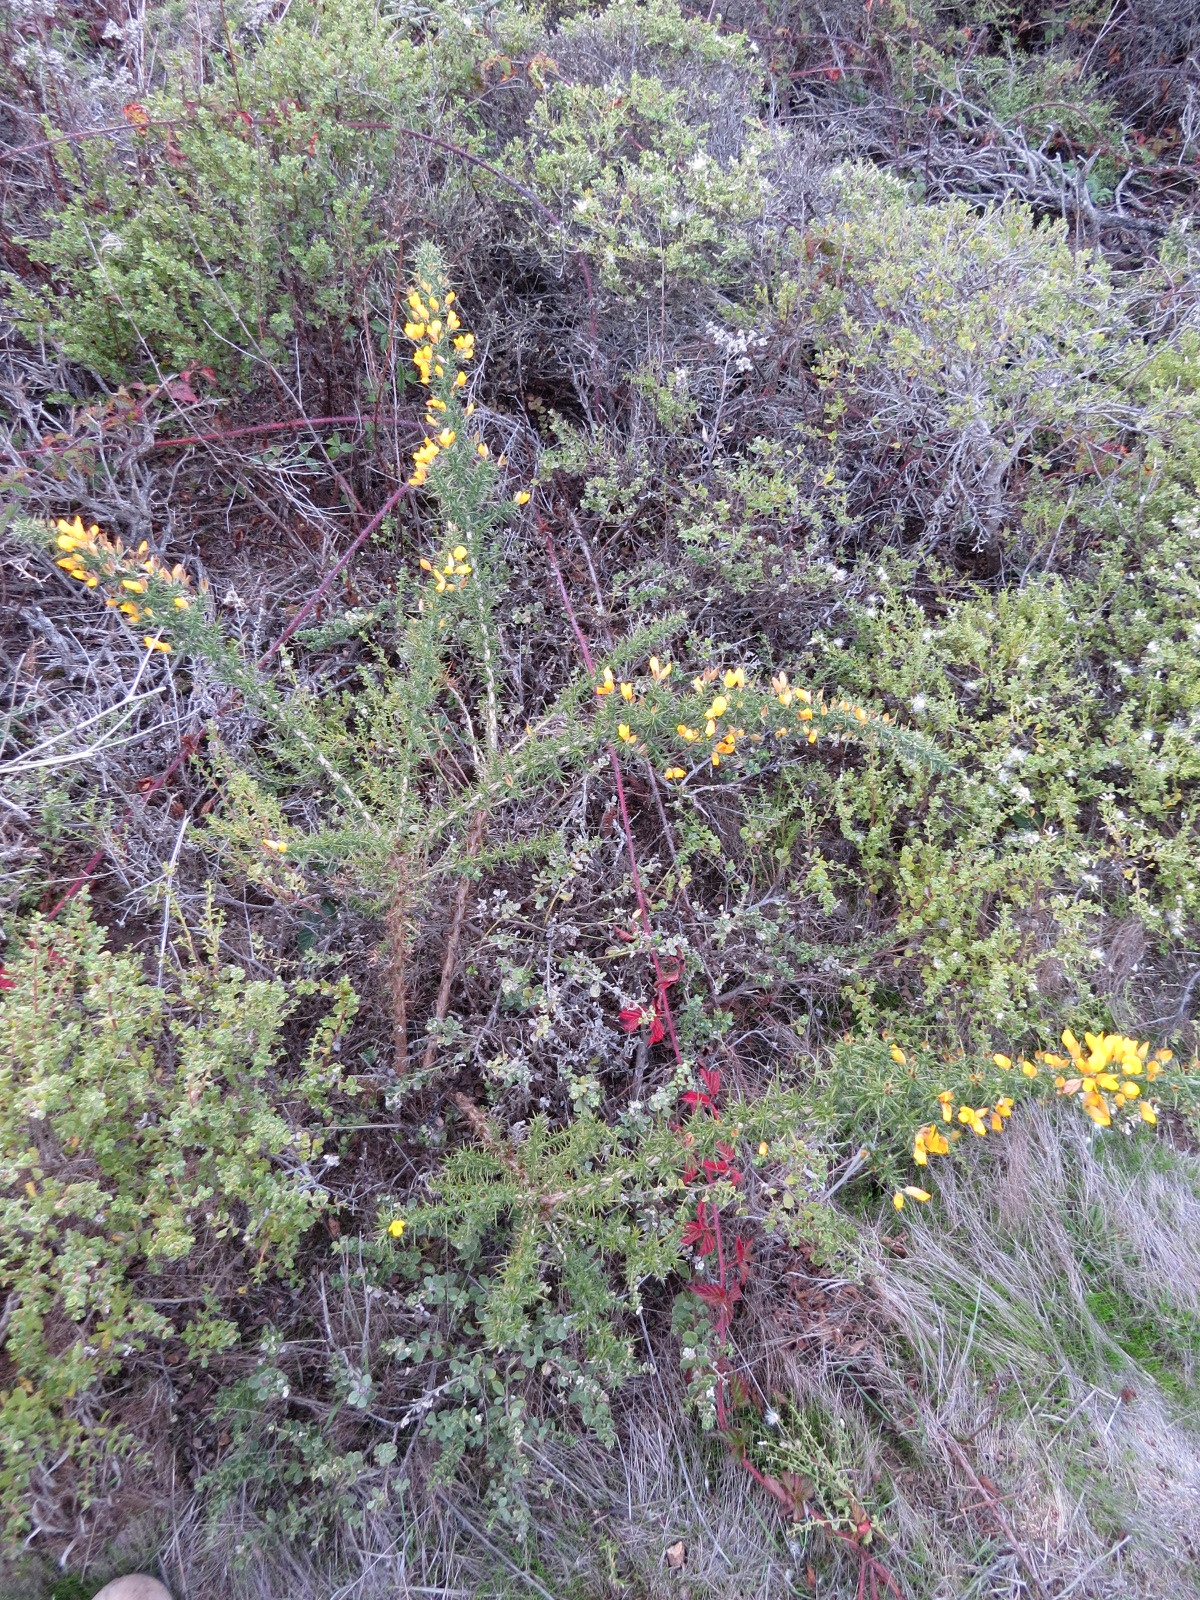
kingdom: Plantae
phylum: Tracheophyta
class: Magnoliopsida
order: Fabales
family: Fabaceae
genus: Ulex
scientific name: Ulex europaeus
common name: Common gorse
